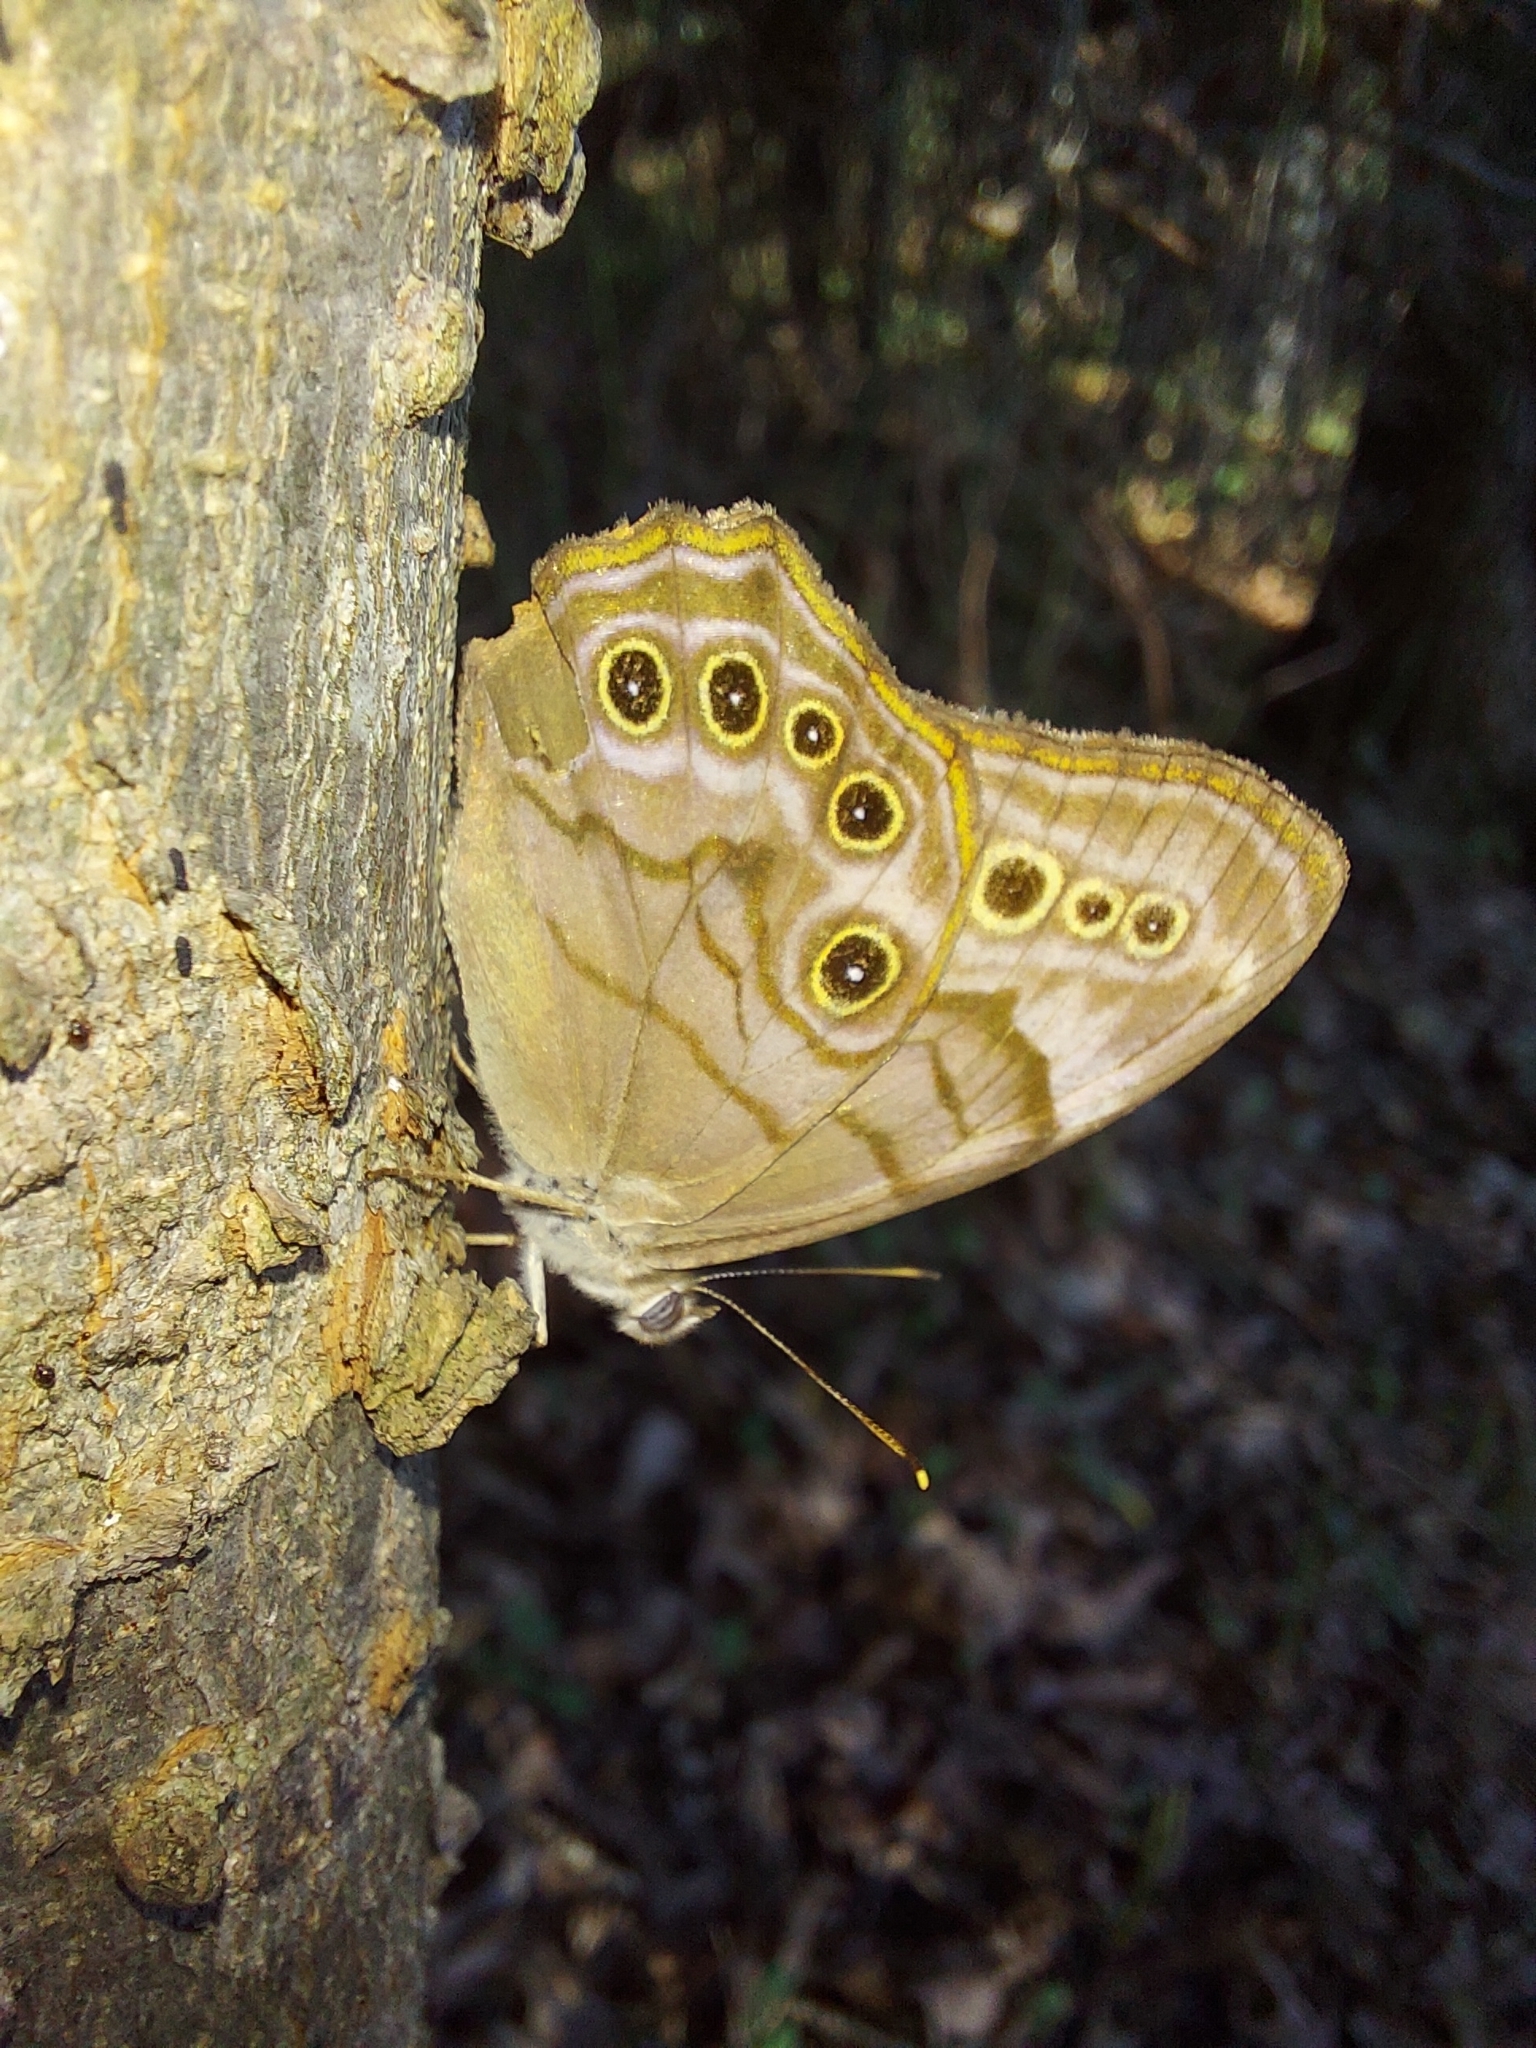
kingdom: Animalia
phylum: Arthropoda
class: Insecta
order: Lepidoptera
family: Nymphalidae
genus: Lethe
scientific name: Lethe anthedon
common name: Northern pearly-eye
